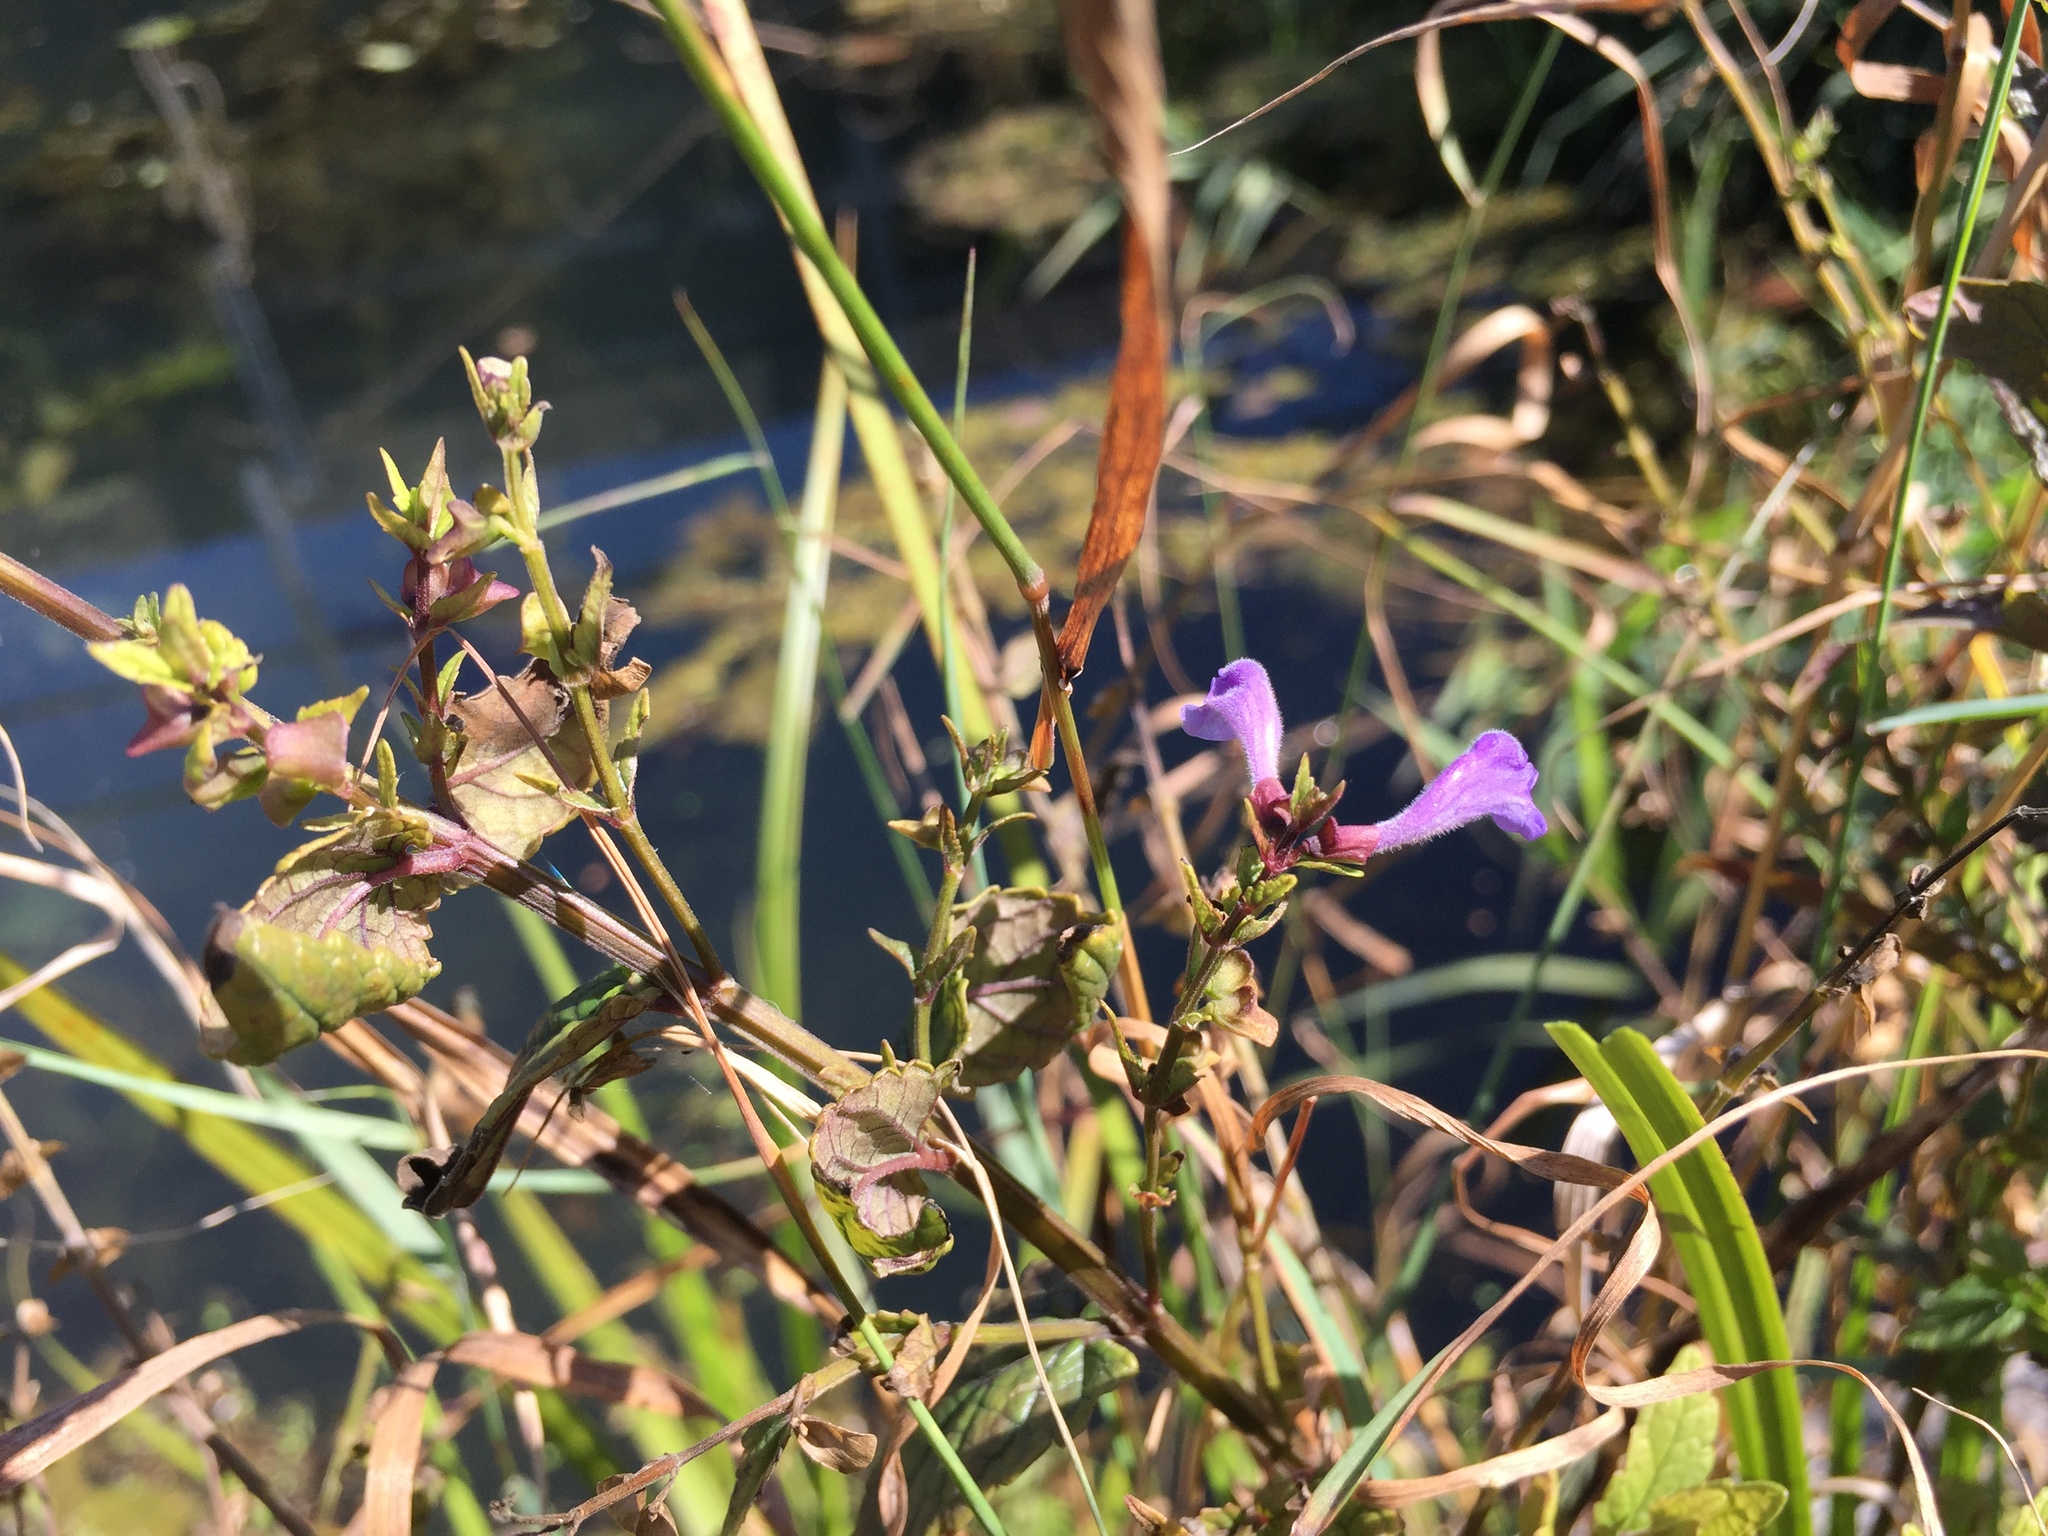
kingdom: Plantae
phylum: Tracheophyta
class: Magnoliopsida
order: Lamiales
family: Lamiaceae
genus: Scutellaria
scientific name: Scutellaria galericulata
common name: Skullcap
